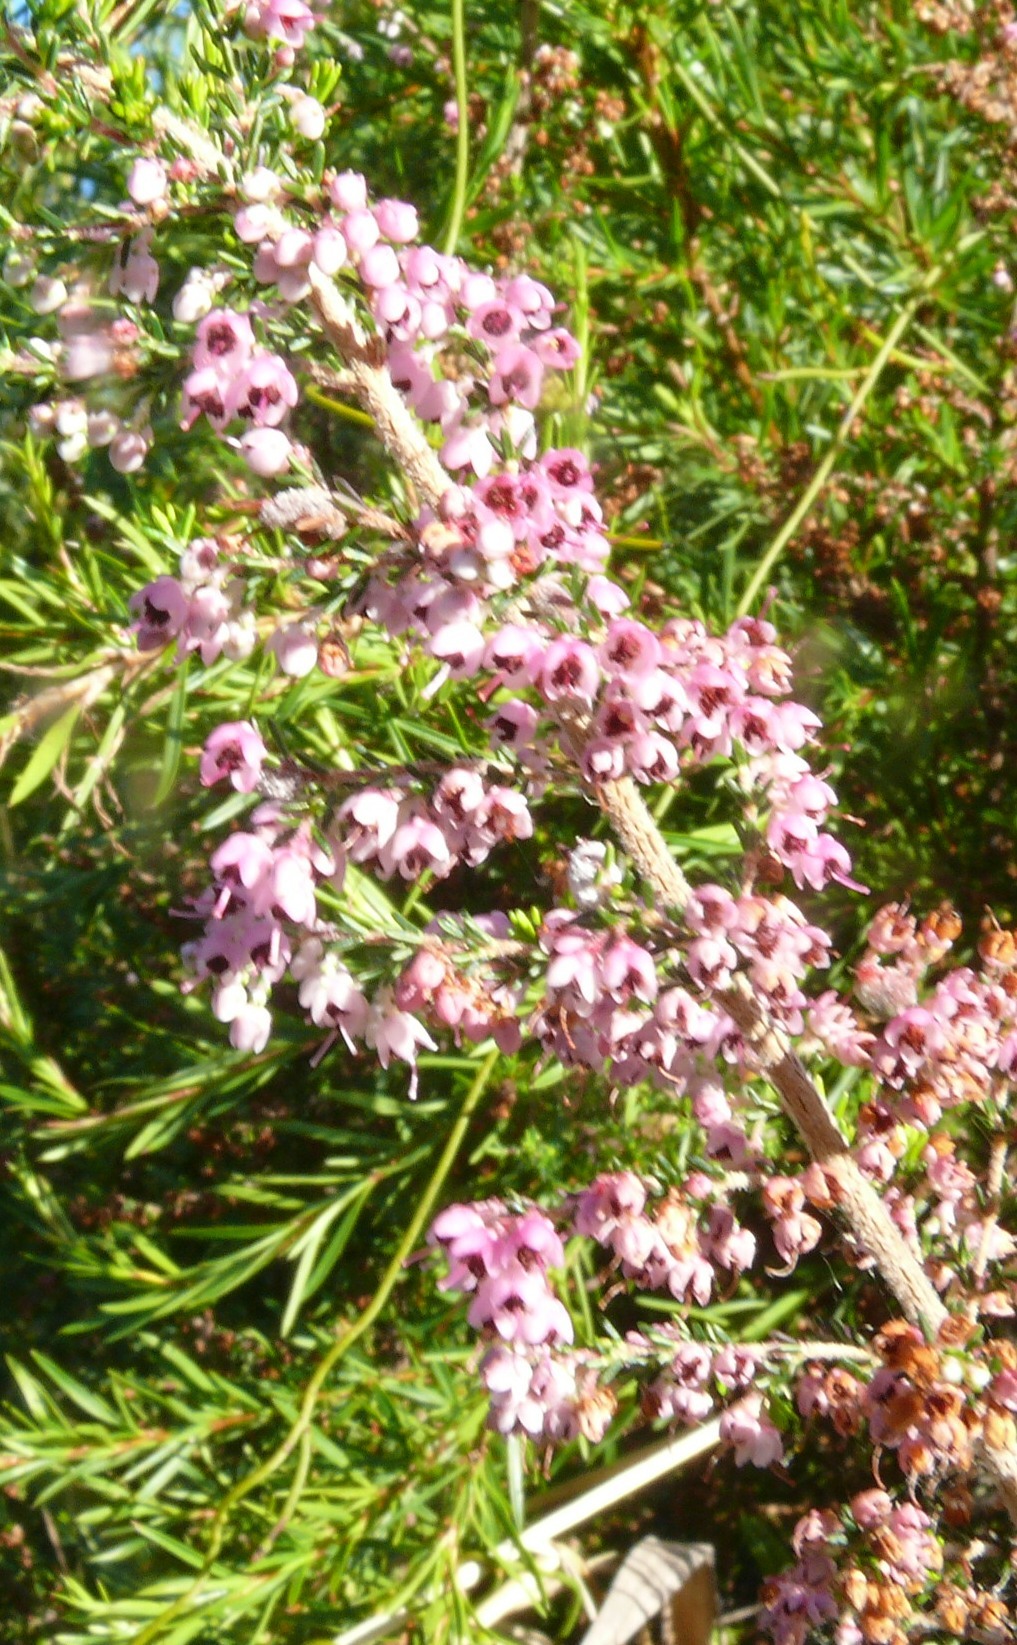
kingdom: Plantae
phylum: Tracheophyta
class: Magnoliopsida
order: Ericales
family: Ericaceae
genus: Erica
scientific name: Erica canaliculata
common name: Hairy grey heather
